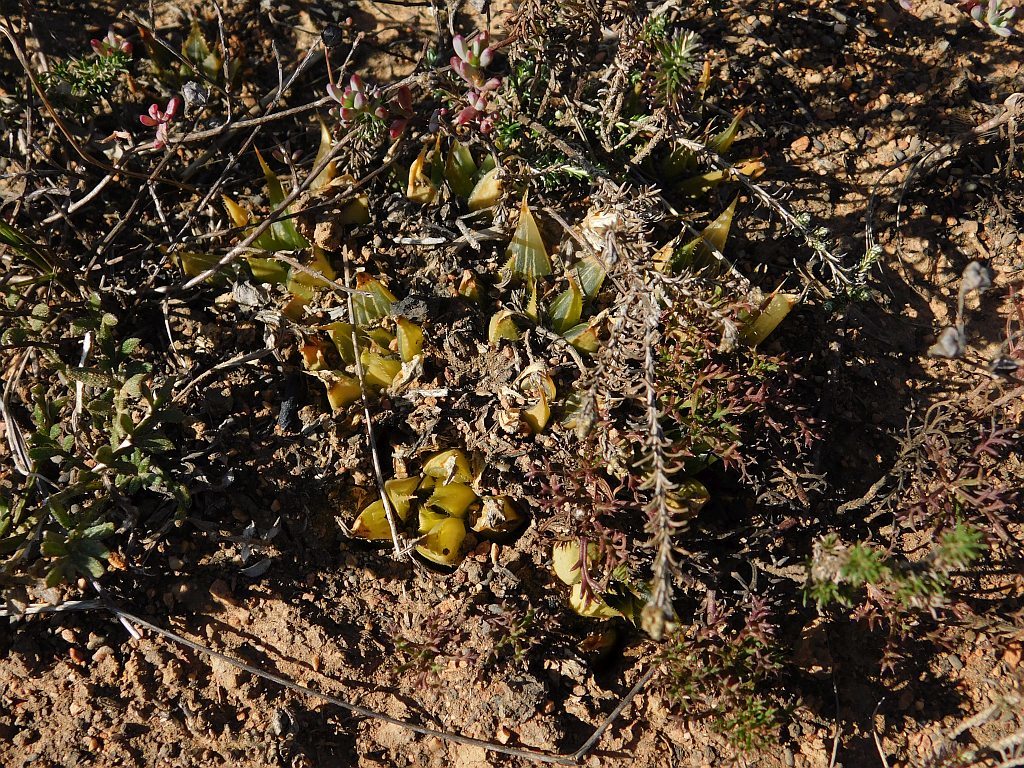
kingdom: Plantae
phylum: Tracheophyta
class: Liliopsida
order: Asparagales
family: Asphodelaceae
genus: Haworthia
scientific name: Haworthia mirabilis
